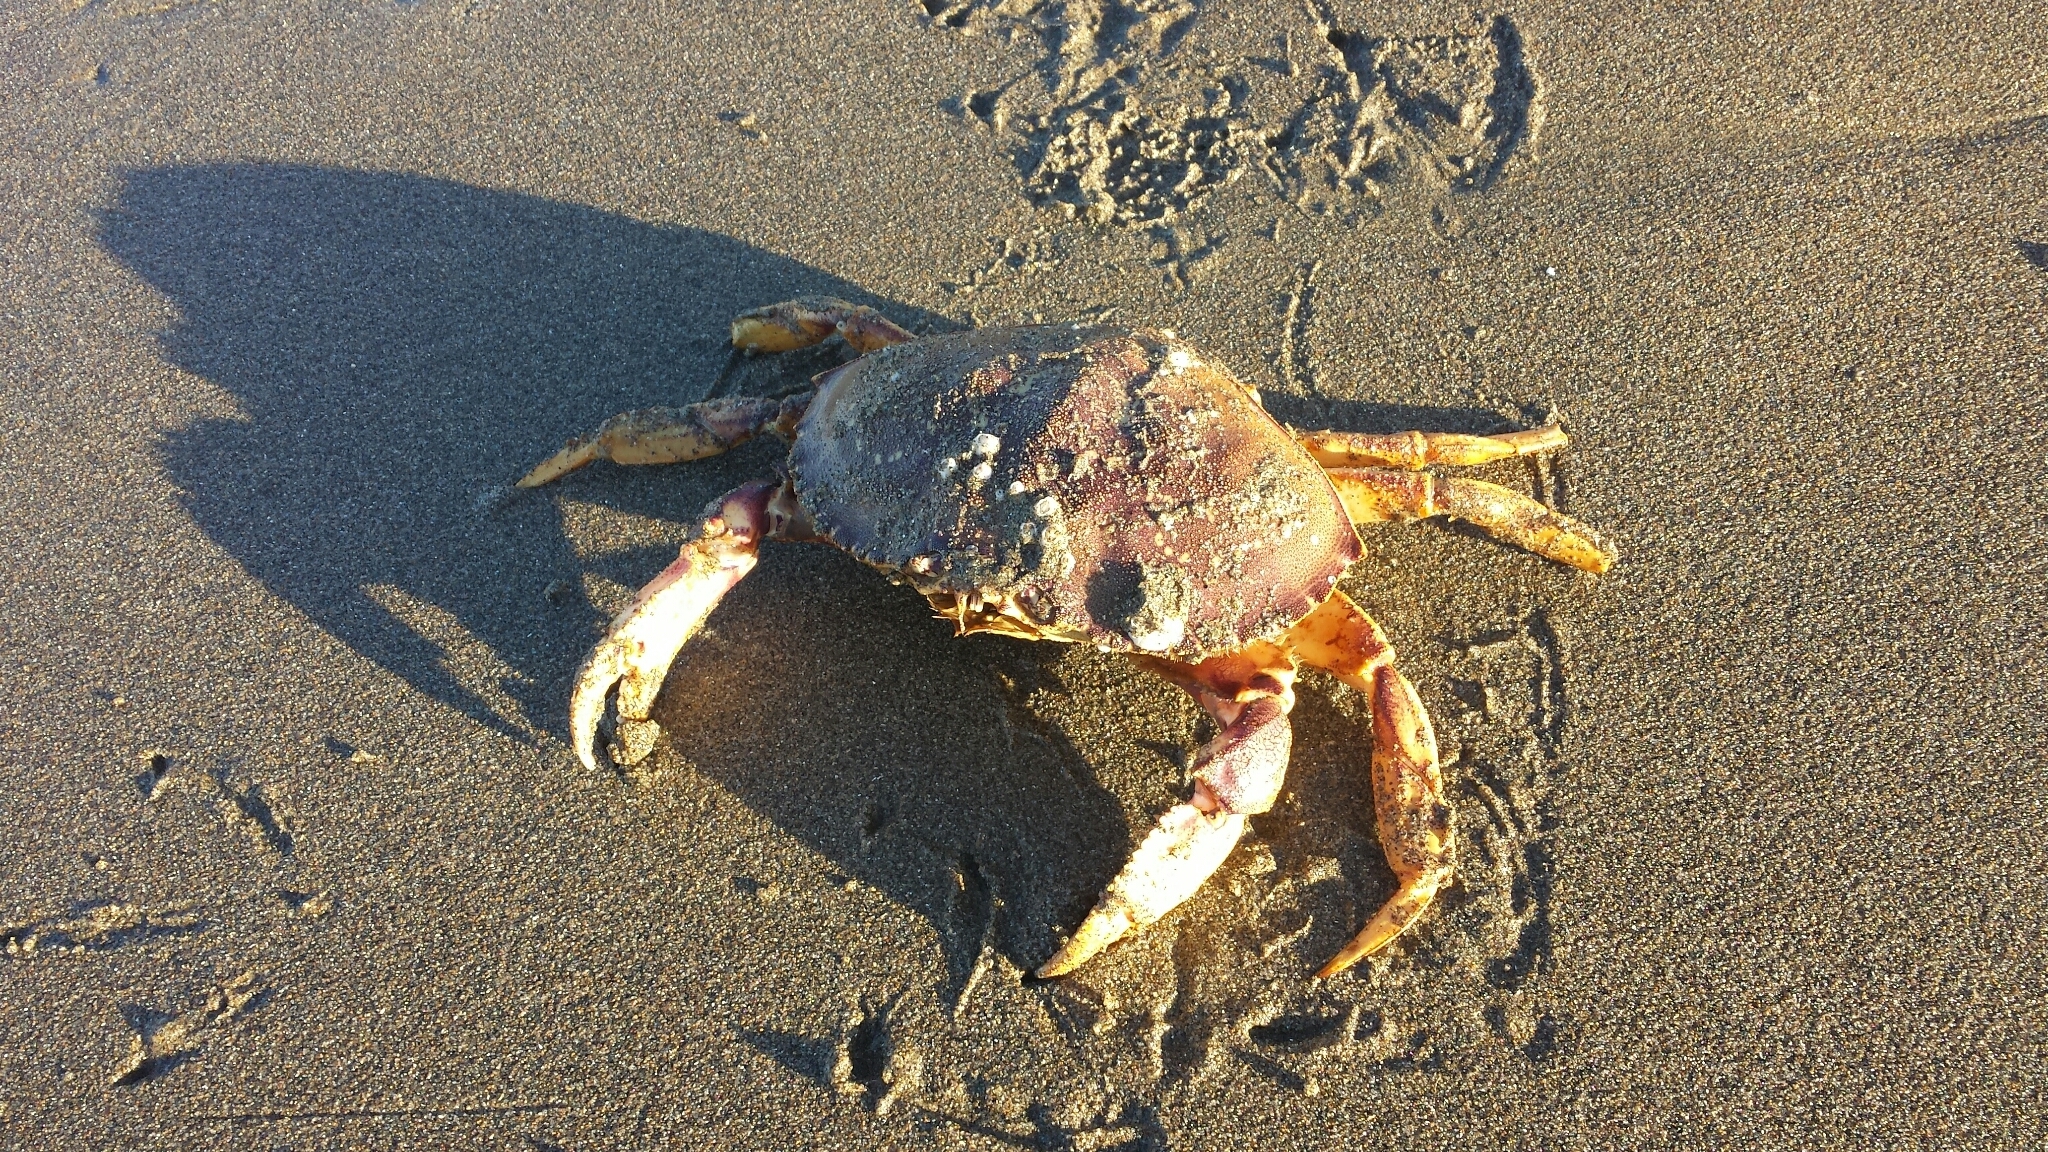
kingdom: Animalia
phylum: Arthropoda
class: Malacostraca
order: Decapoda
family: Cancridae
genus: Metacarcinus
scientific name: Metacarcinus magister
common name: Californian crab
